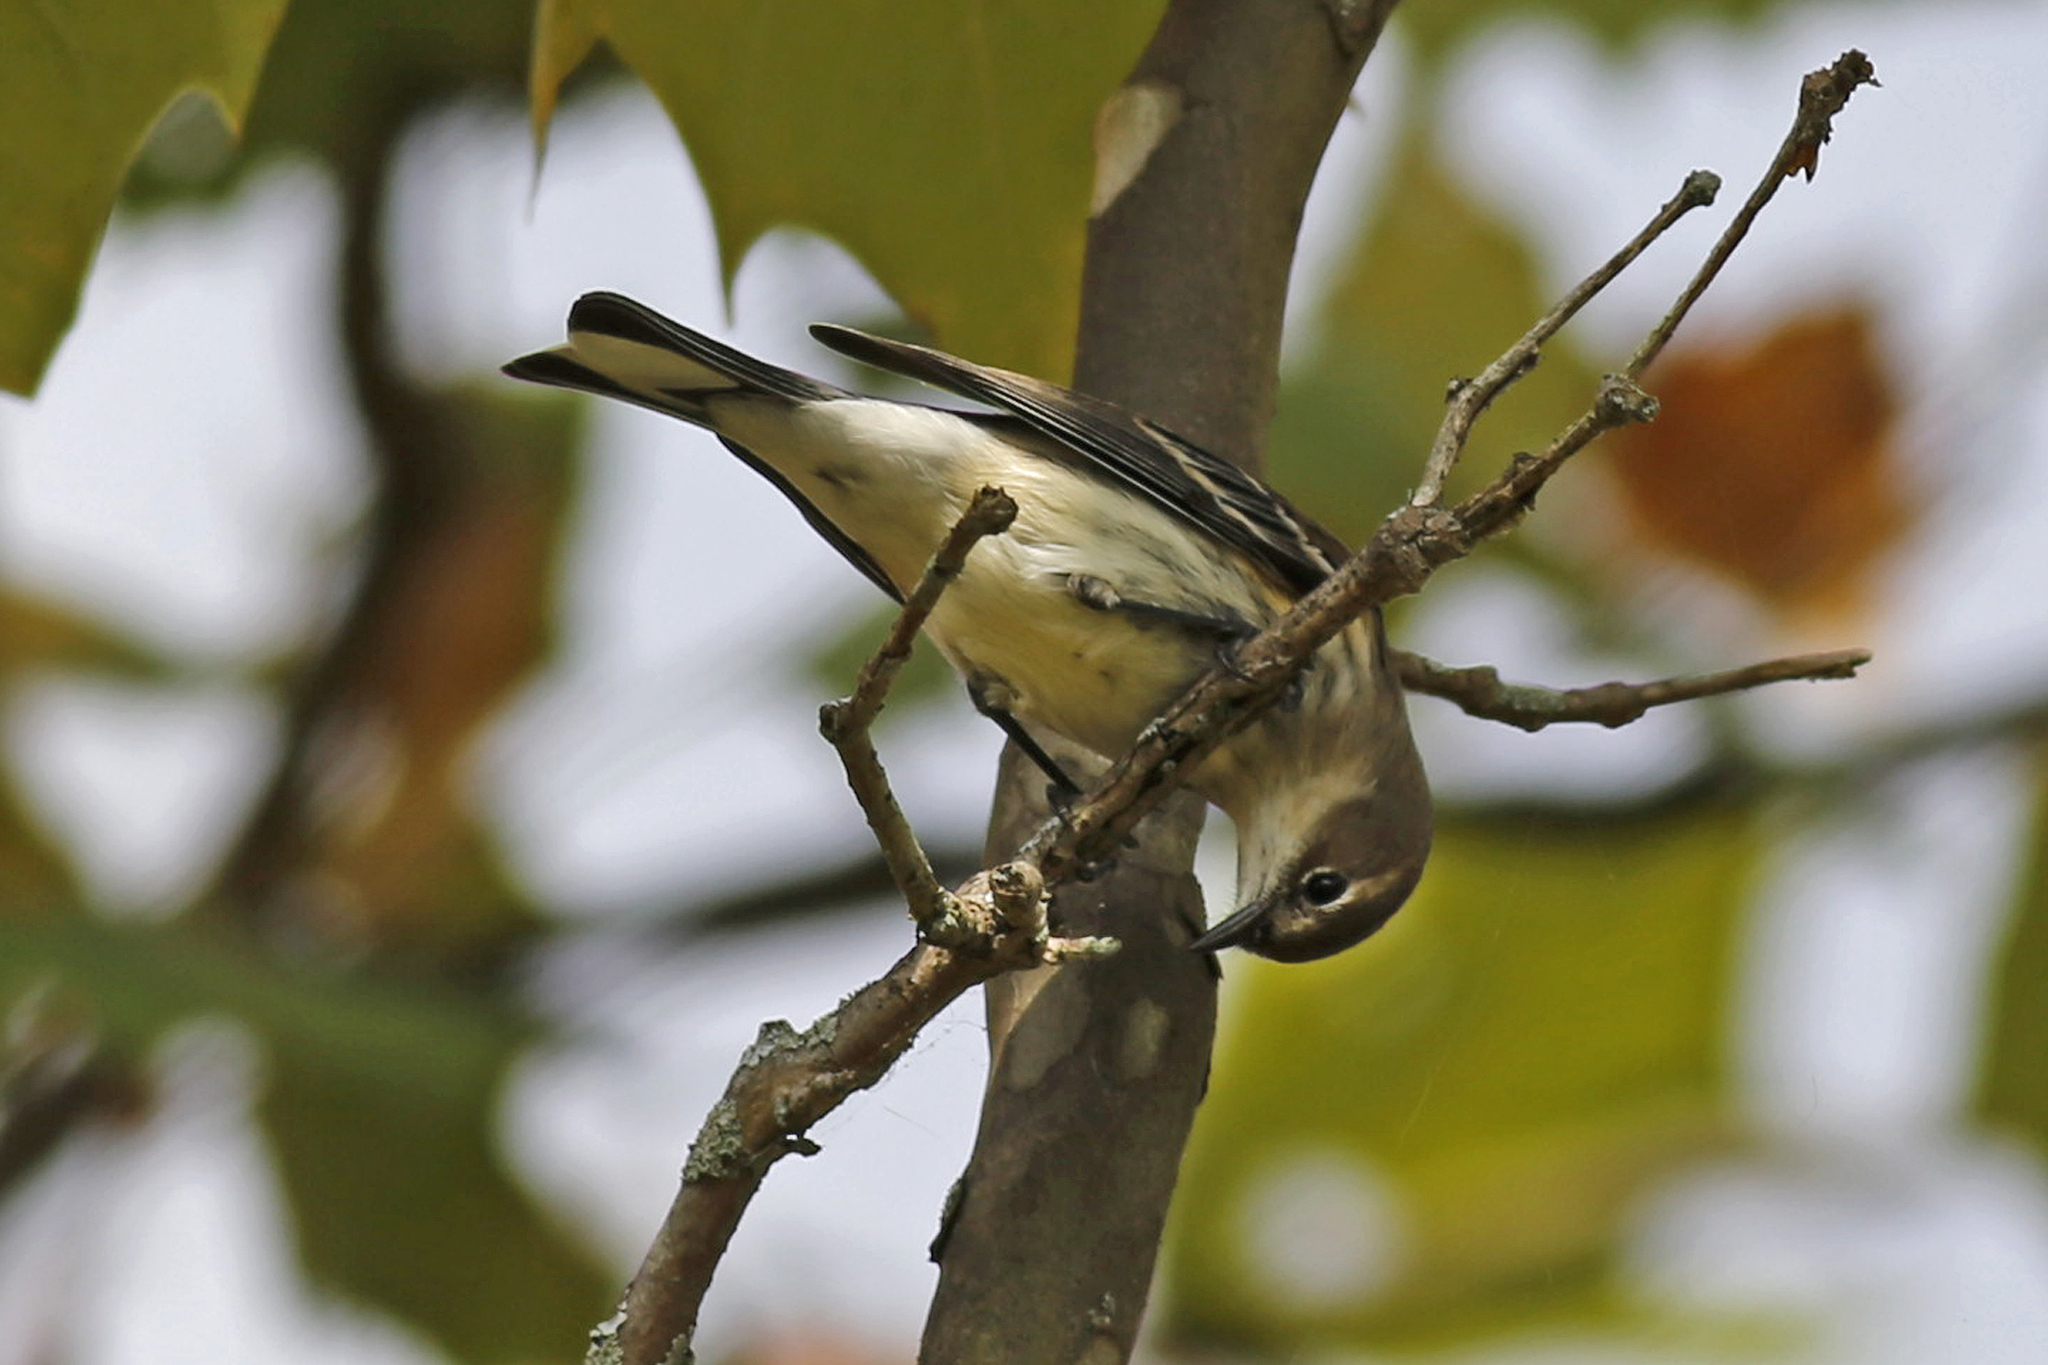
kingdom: Animalia
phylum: Chordata
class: Aves
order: Passeriformes
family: Parulidae
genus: Setophaga
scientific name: Setophaga coronata
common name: Myrtle warbler
